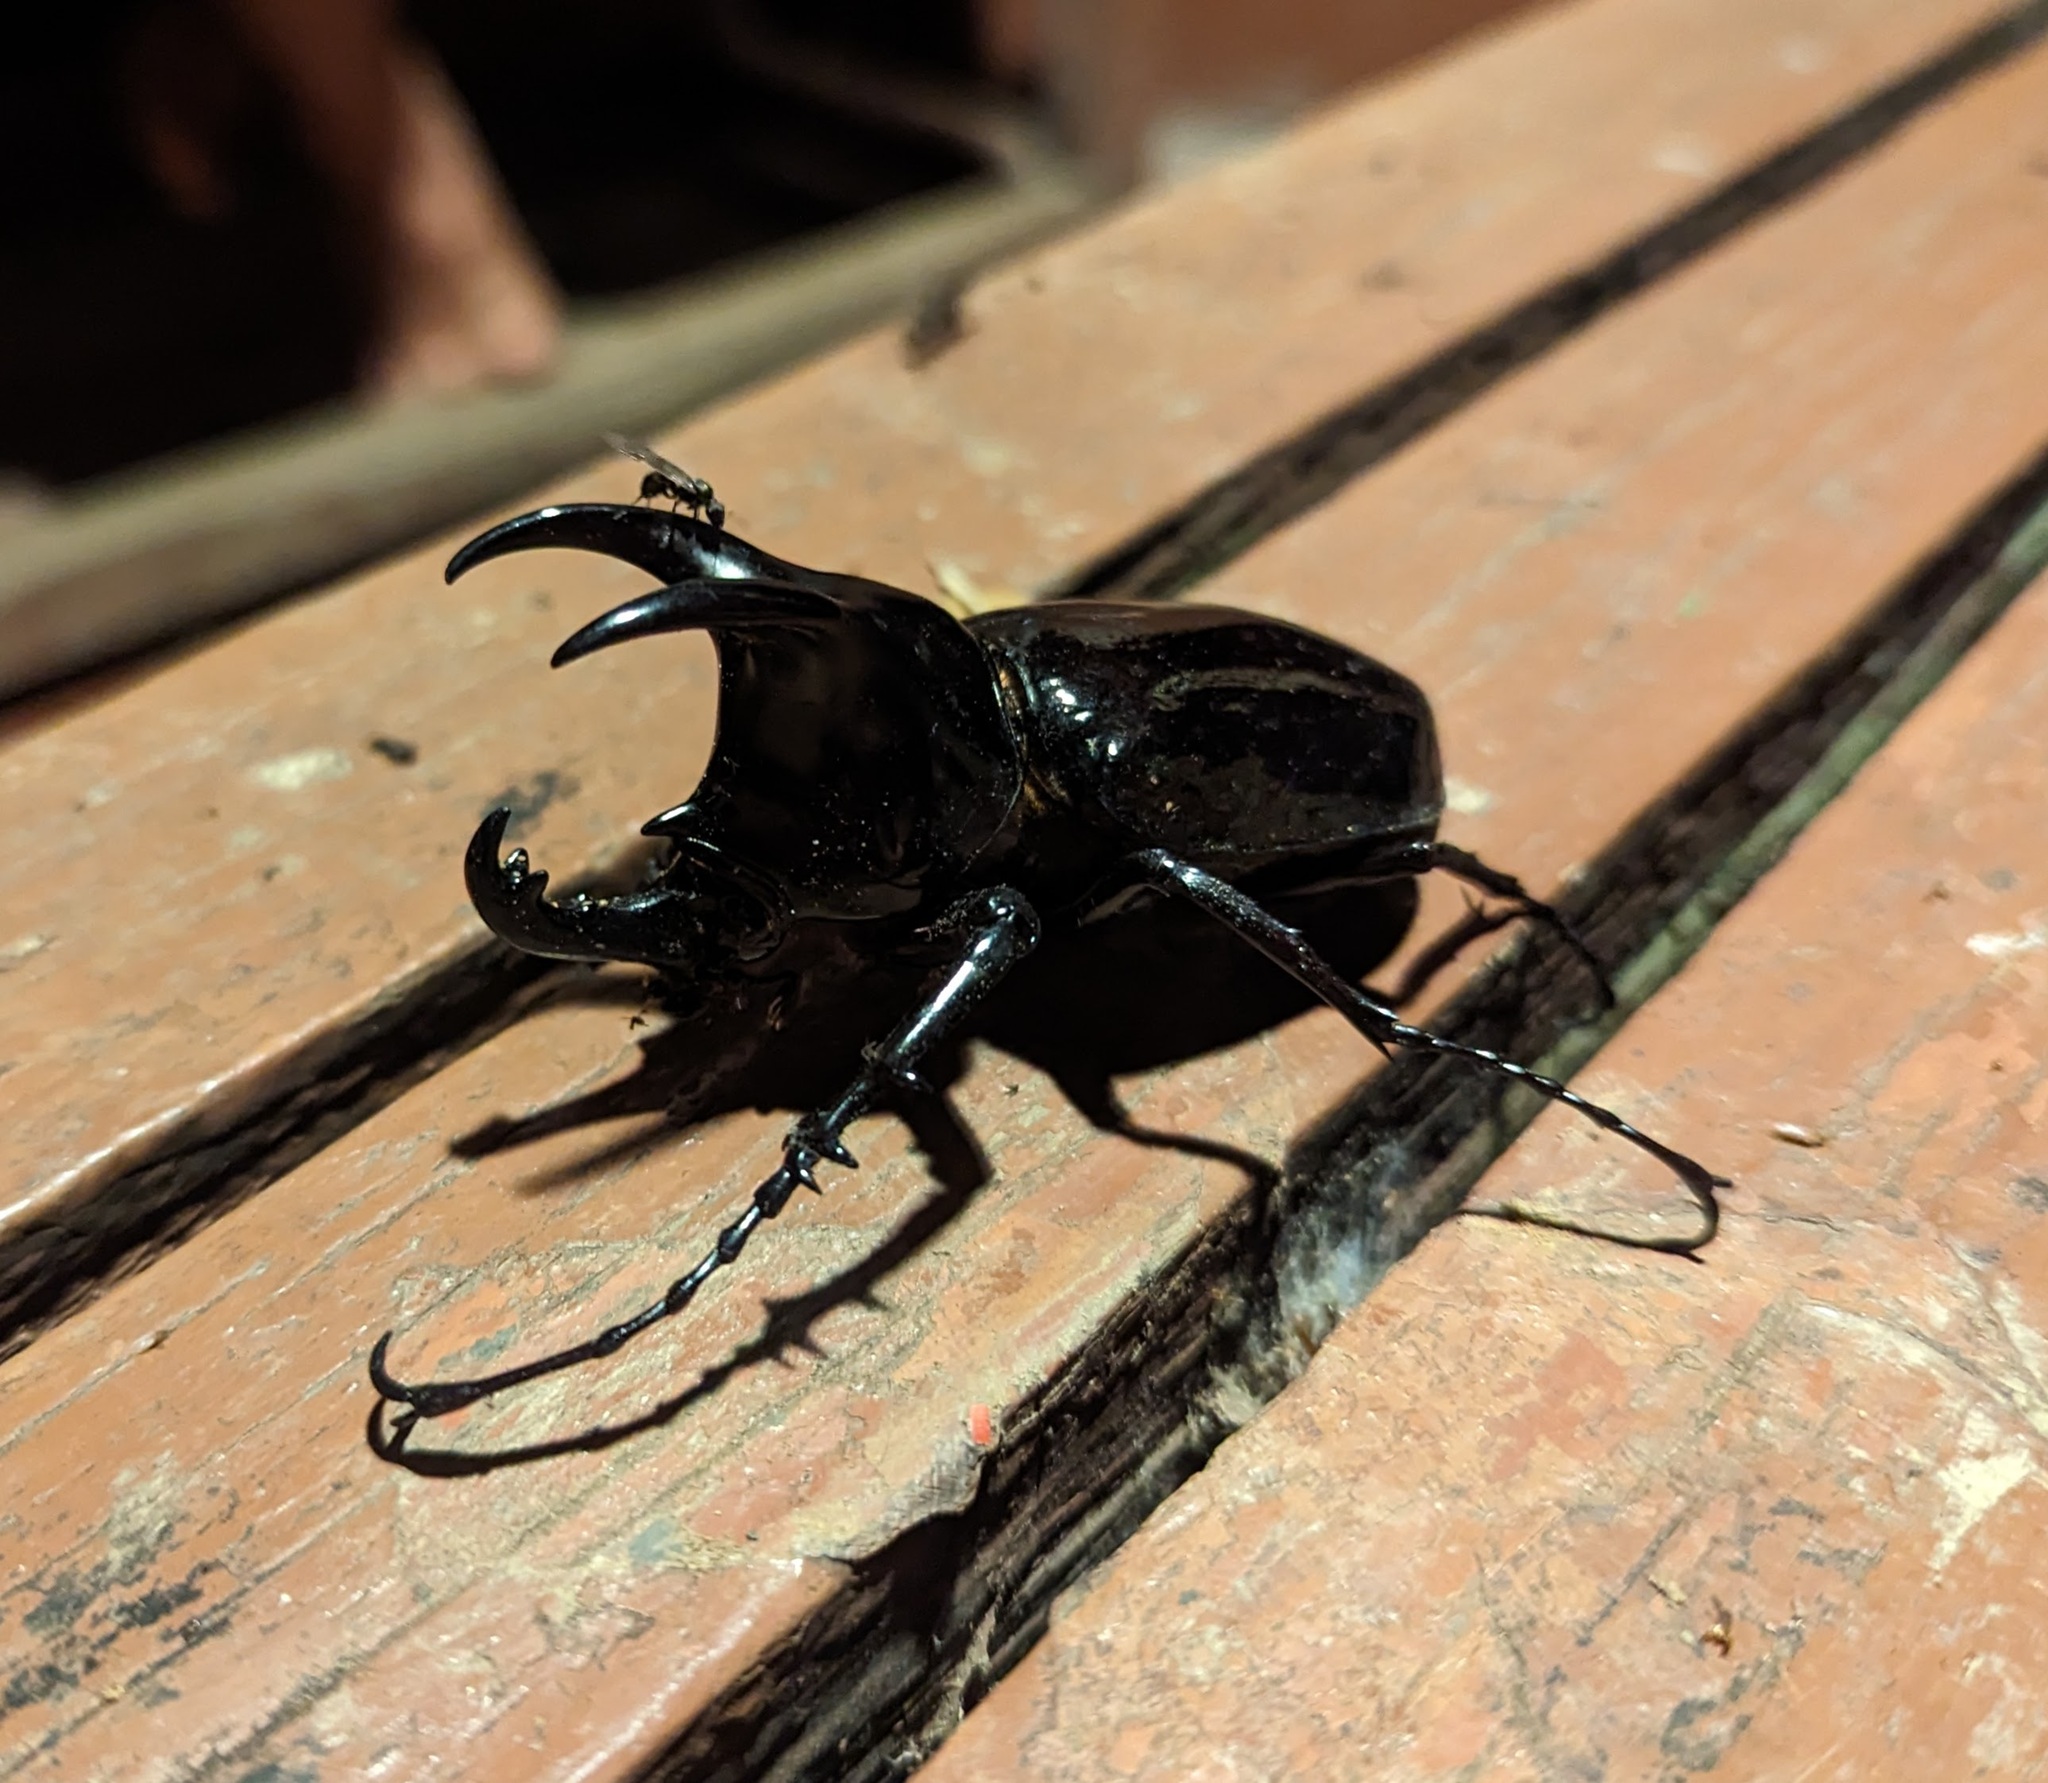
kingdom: Animalia
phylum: Arthropoda
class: Insecta
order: Coleoptera
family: Scarabaeidae
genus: Chalcosoma
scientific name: Chalcosoma moellenkampi
